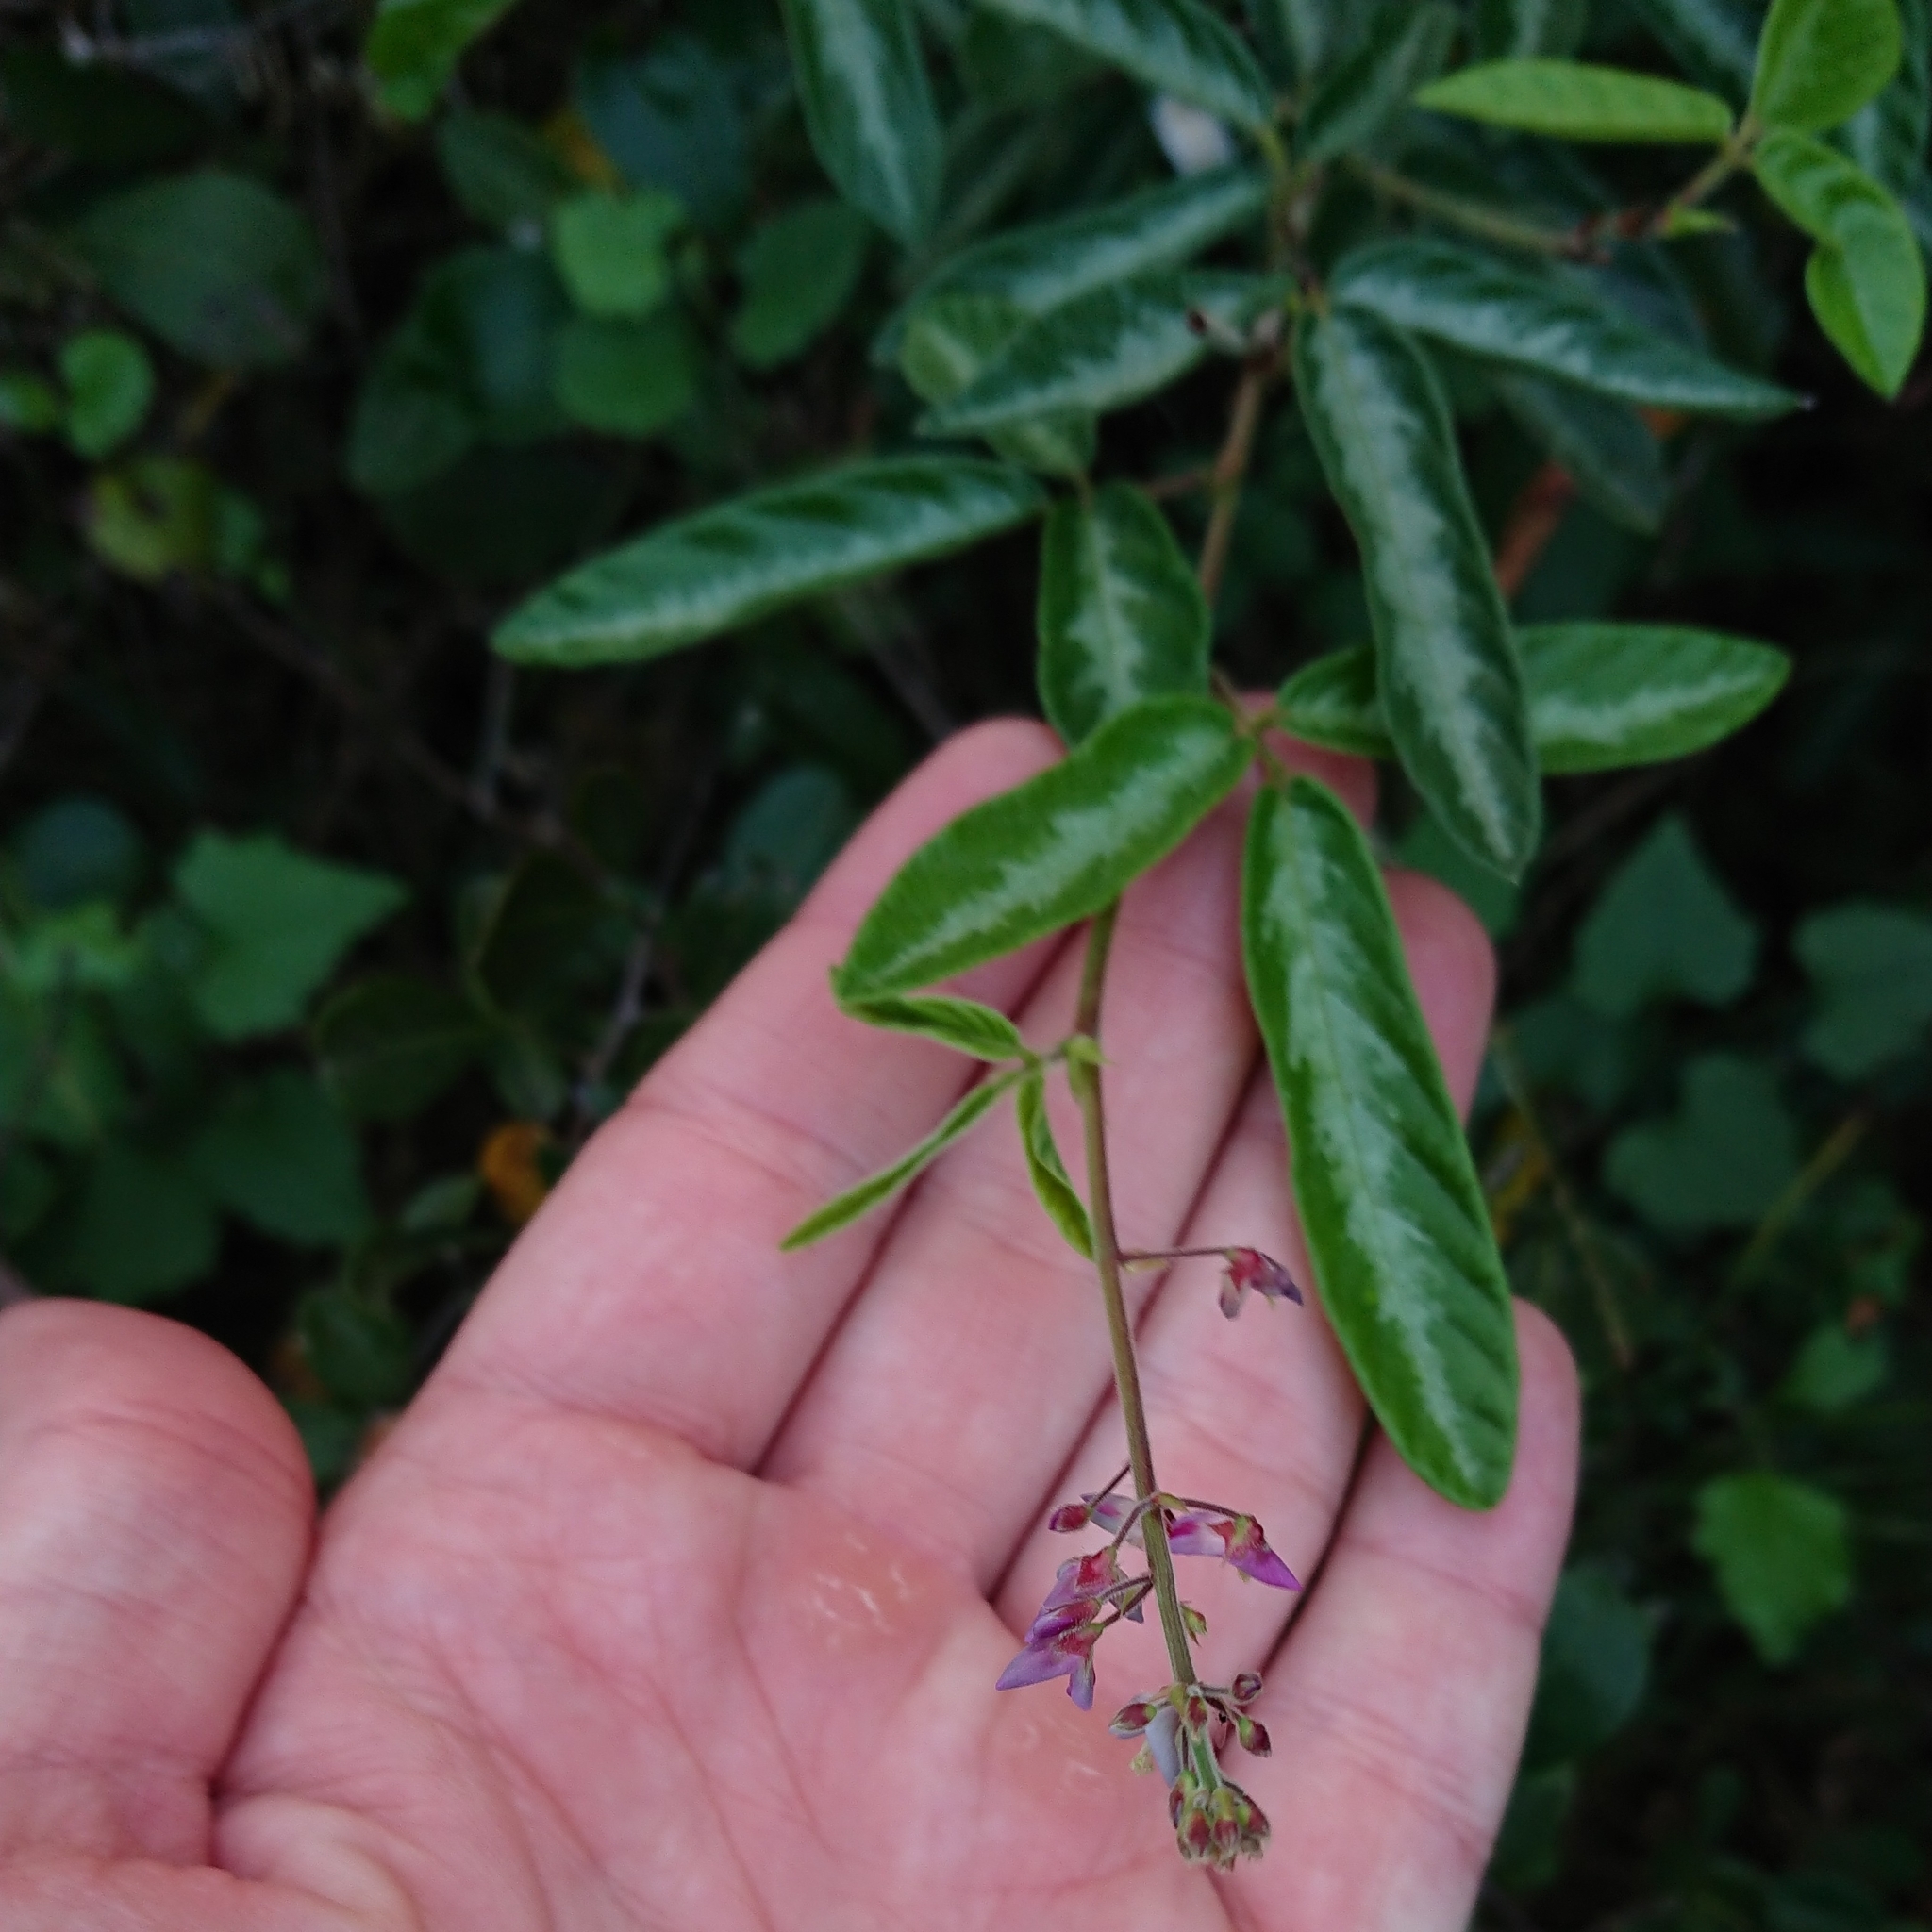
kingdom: Plantae
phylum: Tracheophyta
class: Magnoliopsida
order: Fabales
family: Fabaceae
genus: Desmodium
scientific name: Desmodium incanum
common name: Tickclover
